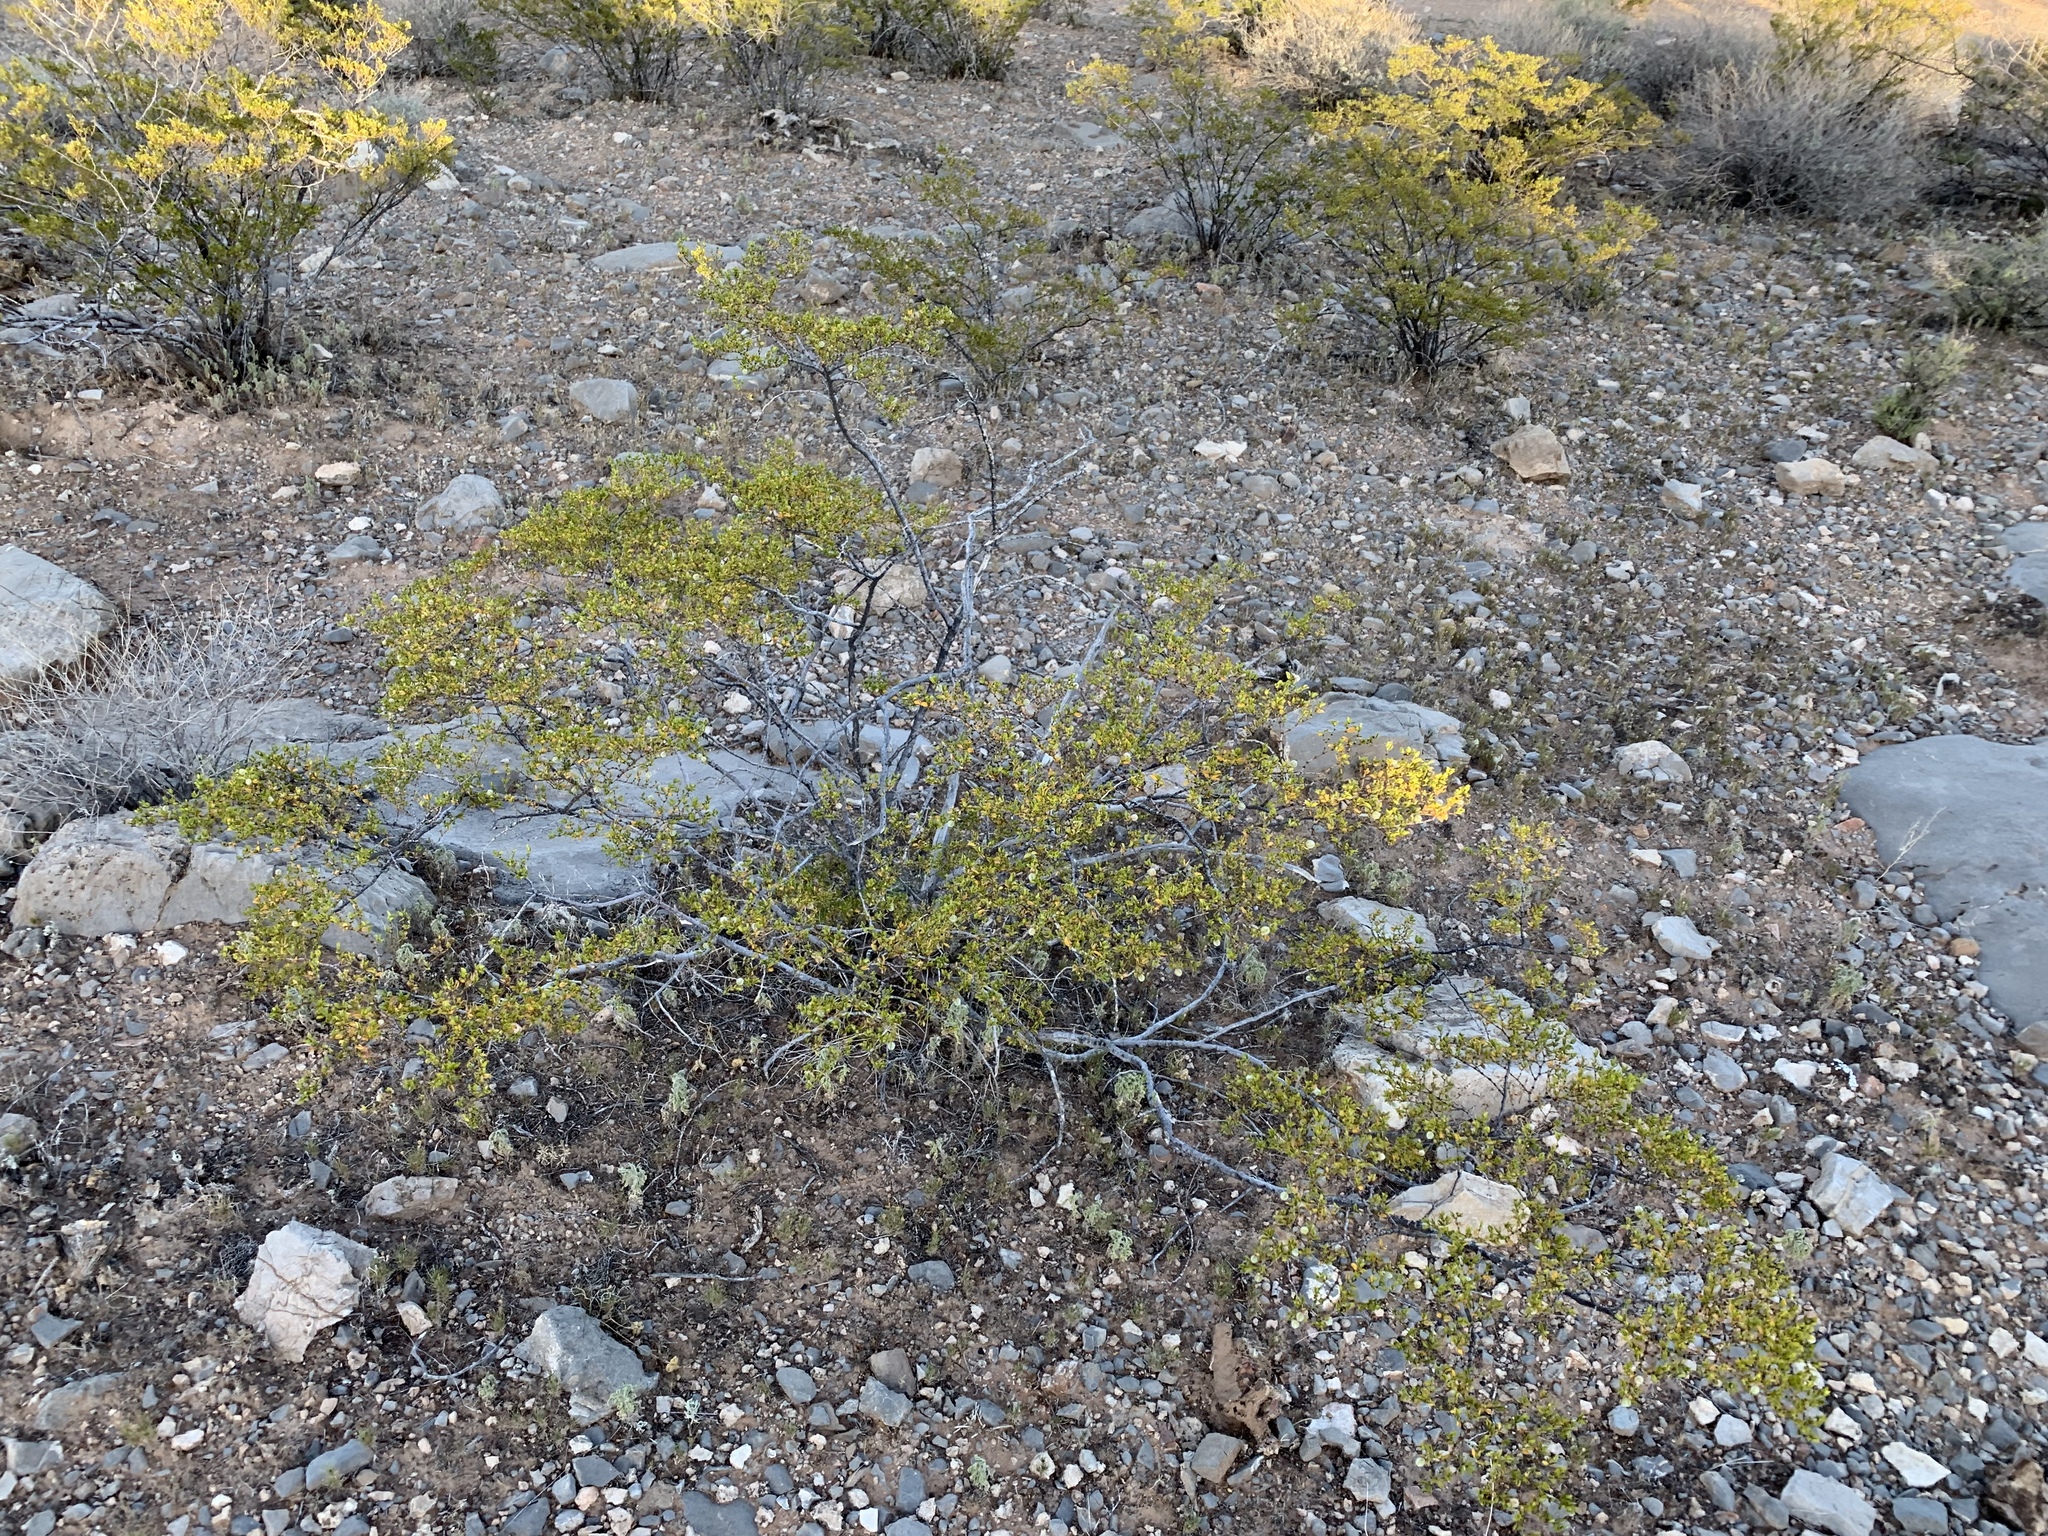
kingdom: Plantae
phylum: Tracheophyta
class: Magnoliopsida
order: Zygophyllales
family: Zygophyllaceae
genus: Larrea
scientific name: Larrea tridentata
